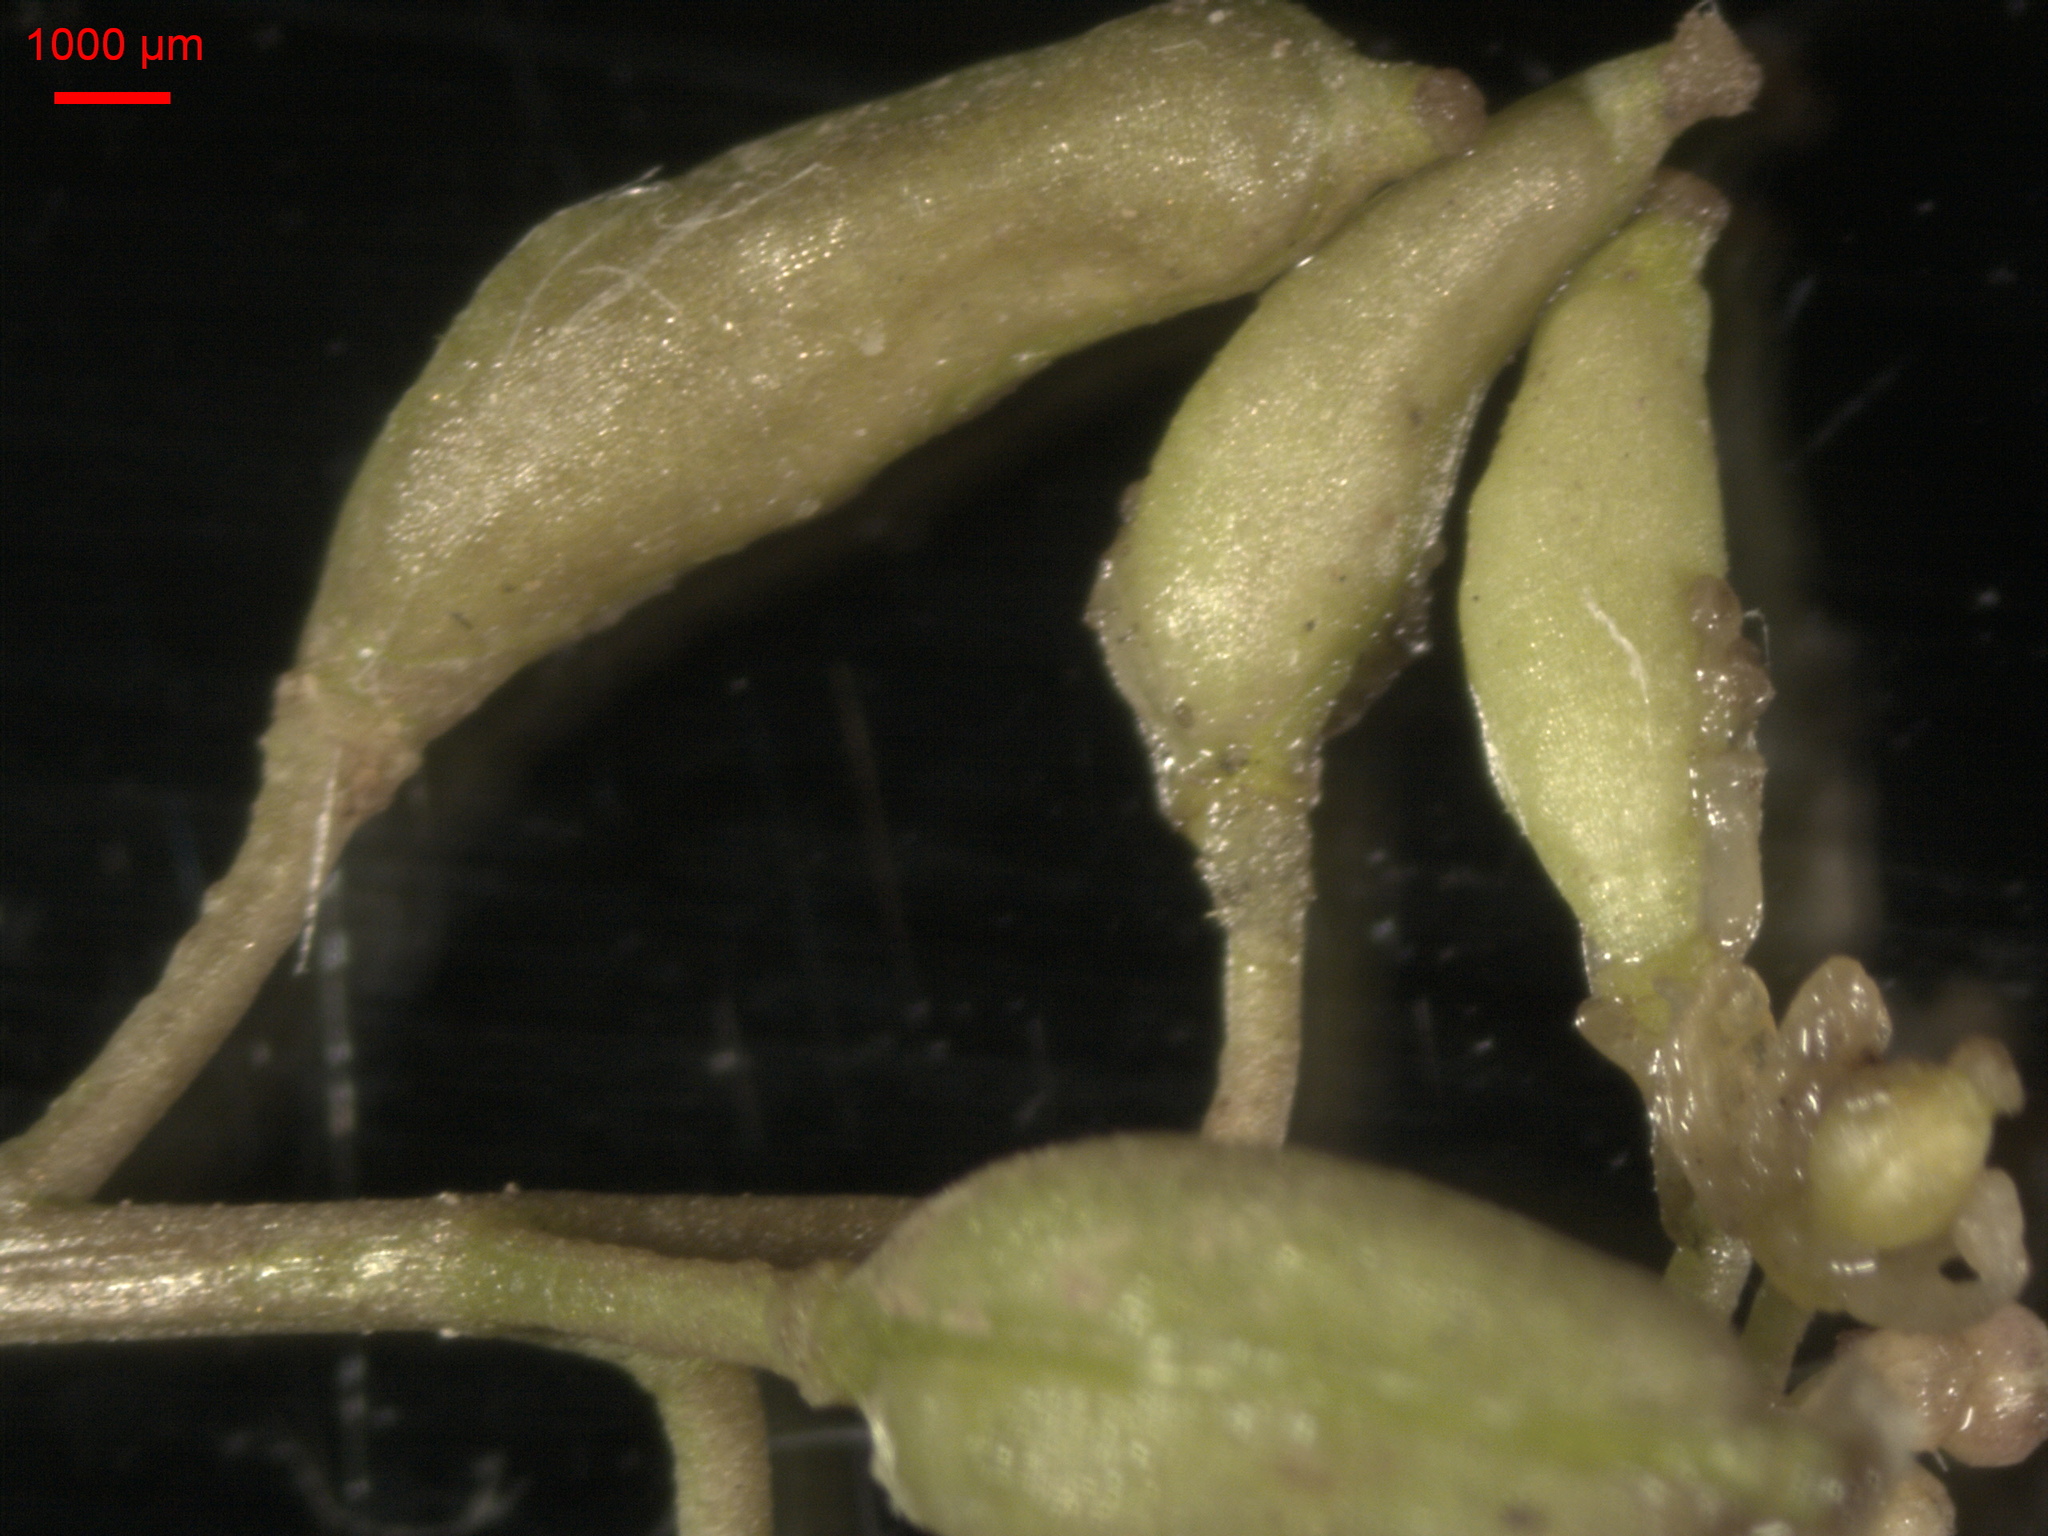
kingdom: Plantae
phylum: Tracheophyta
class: Magnoliopsida
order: Brassicales
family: Brassicaceae
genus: Rorippa
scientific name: Rorippa palustris
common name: Marsh yellow-cress
